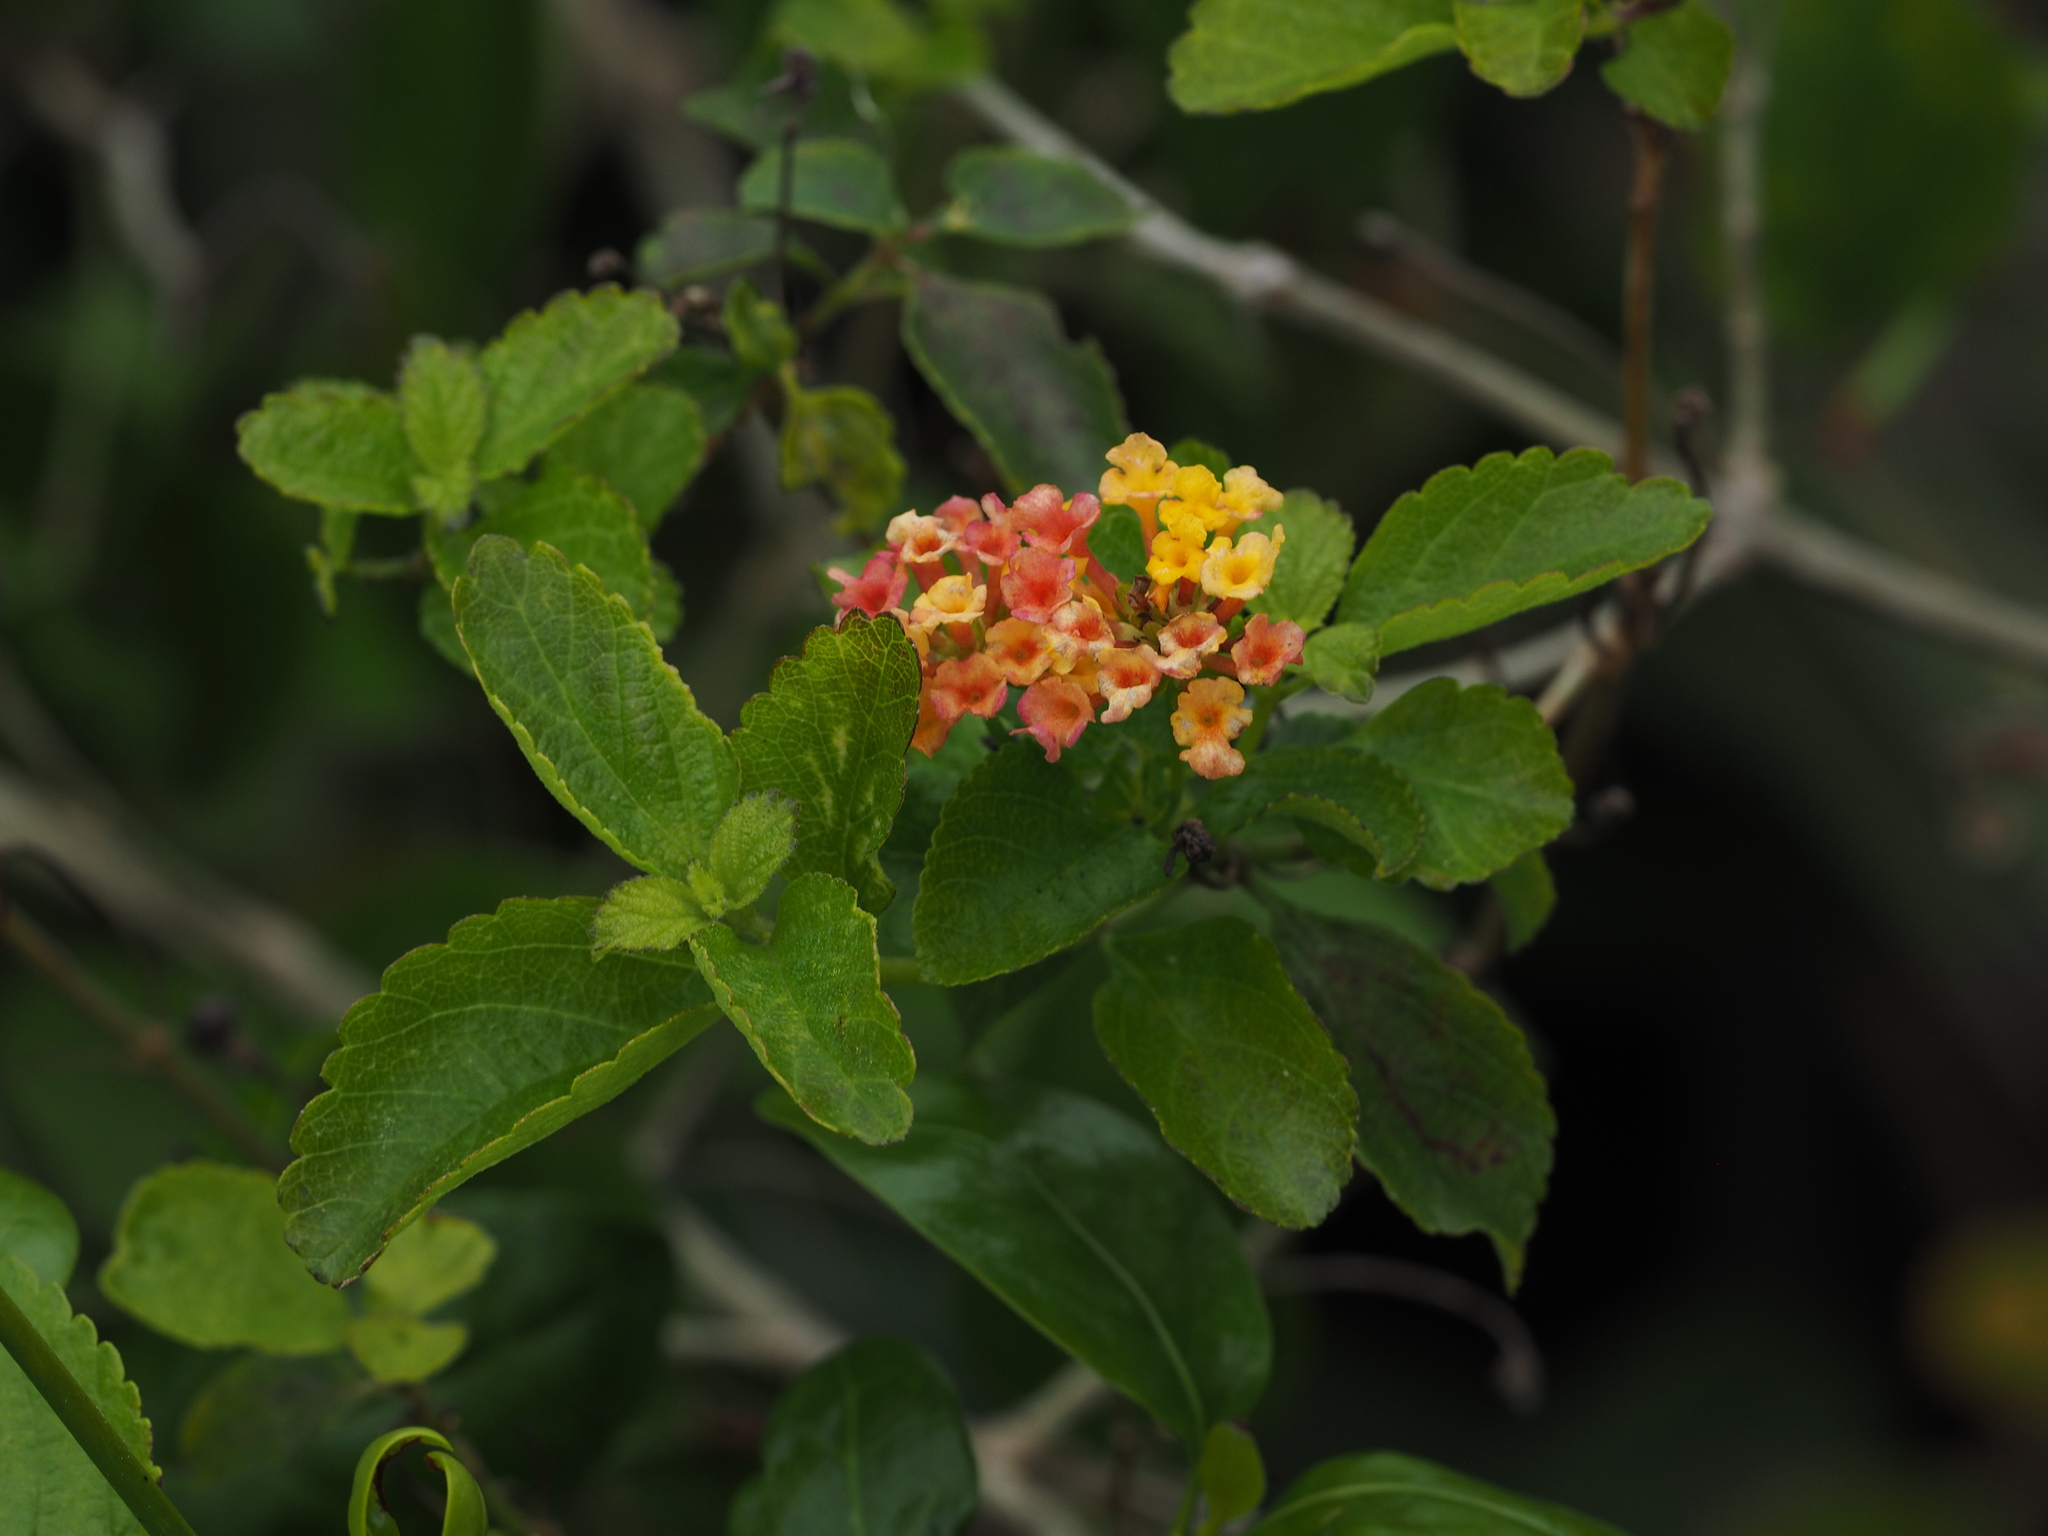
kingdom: Plantae
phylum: Tracheophyta
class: Magnoliopsida
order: Lamiales
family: Verbenaceae
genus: Lantana
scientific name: Lantana camara
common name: Lantana
